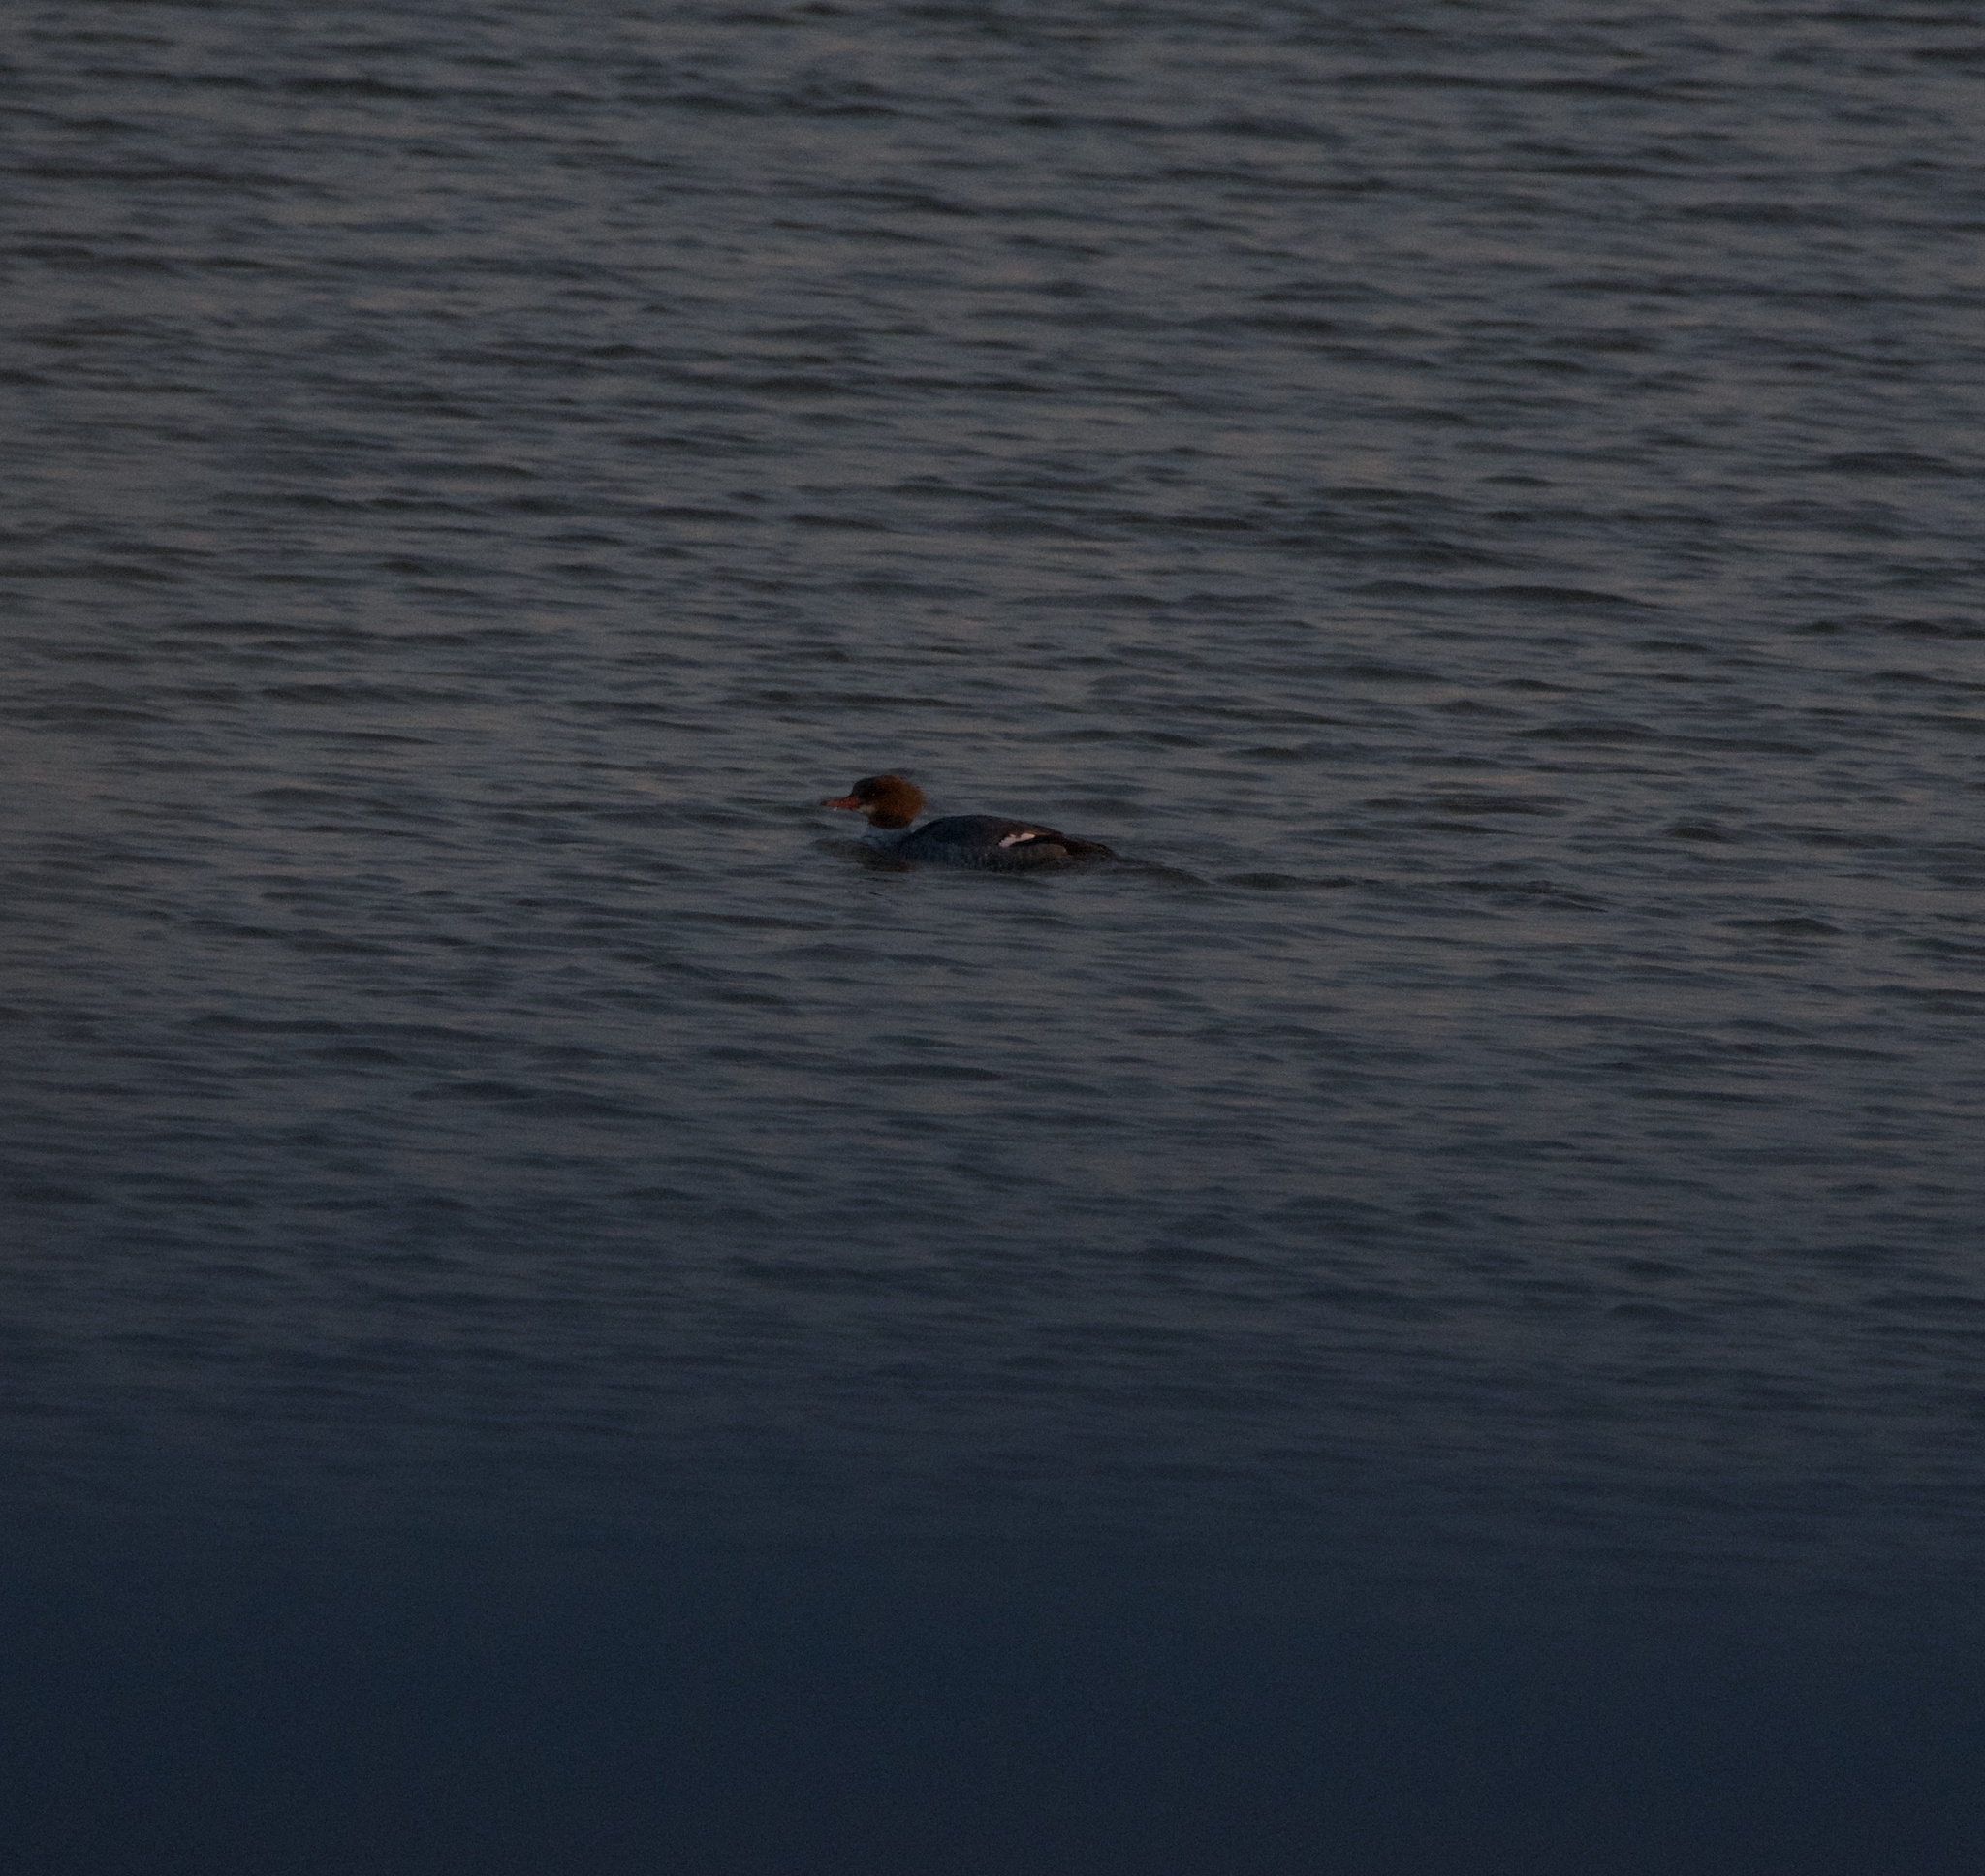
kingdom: Animalia
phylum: Chordata
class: Aves
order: Anseriformes
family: Anatidae
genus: Mergus
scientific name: Mergus merganser
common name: Common merganser
